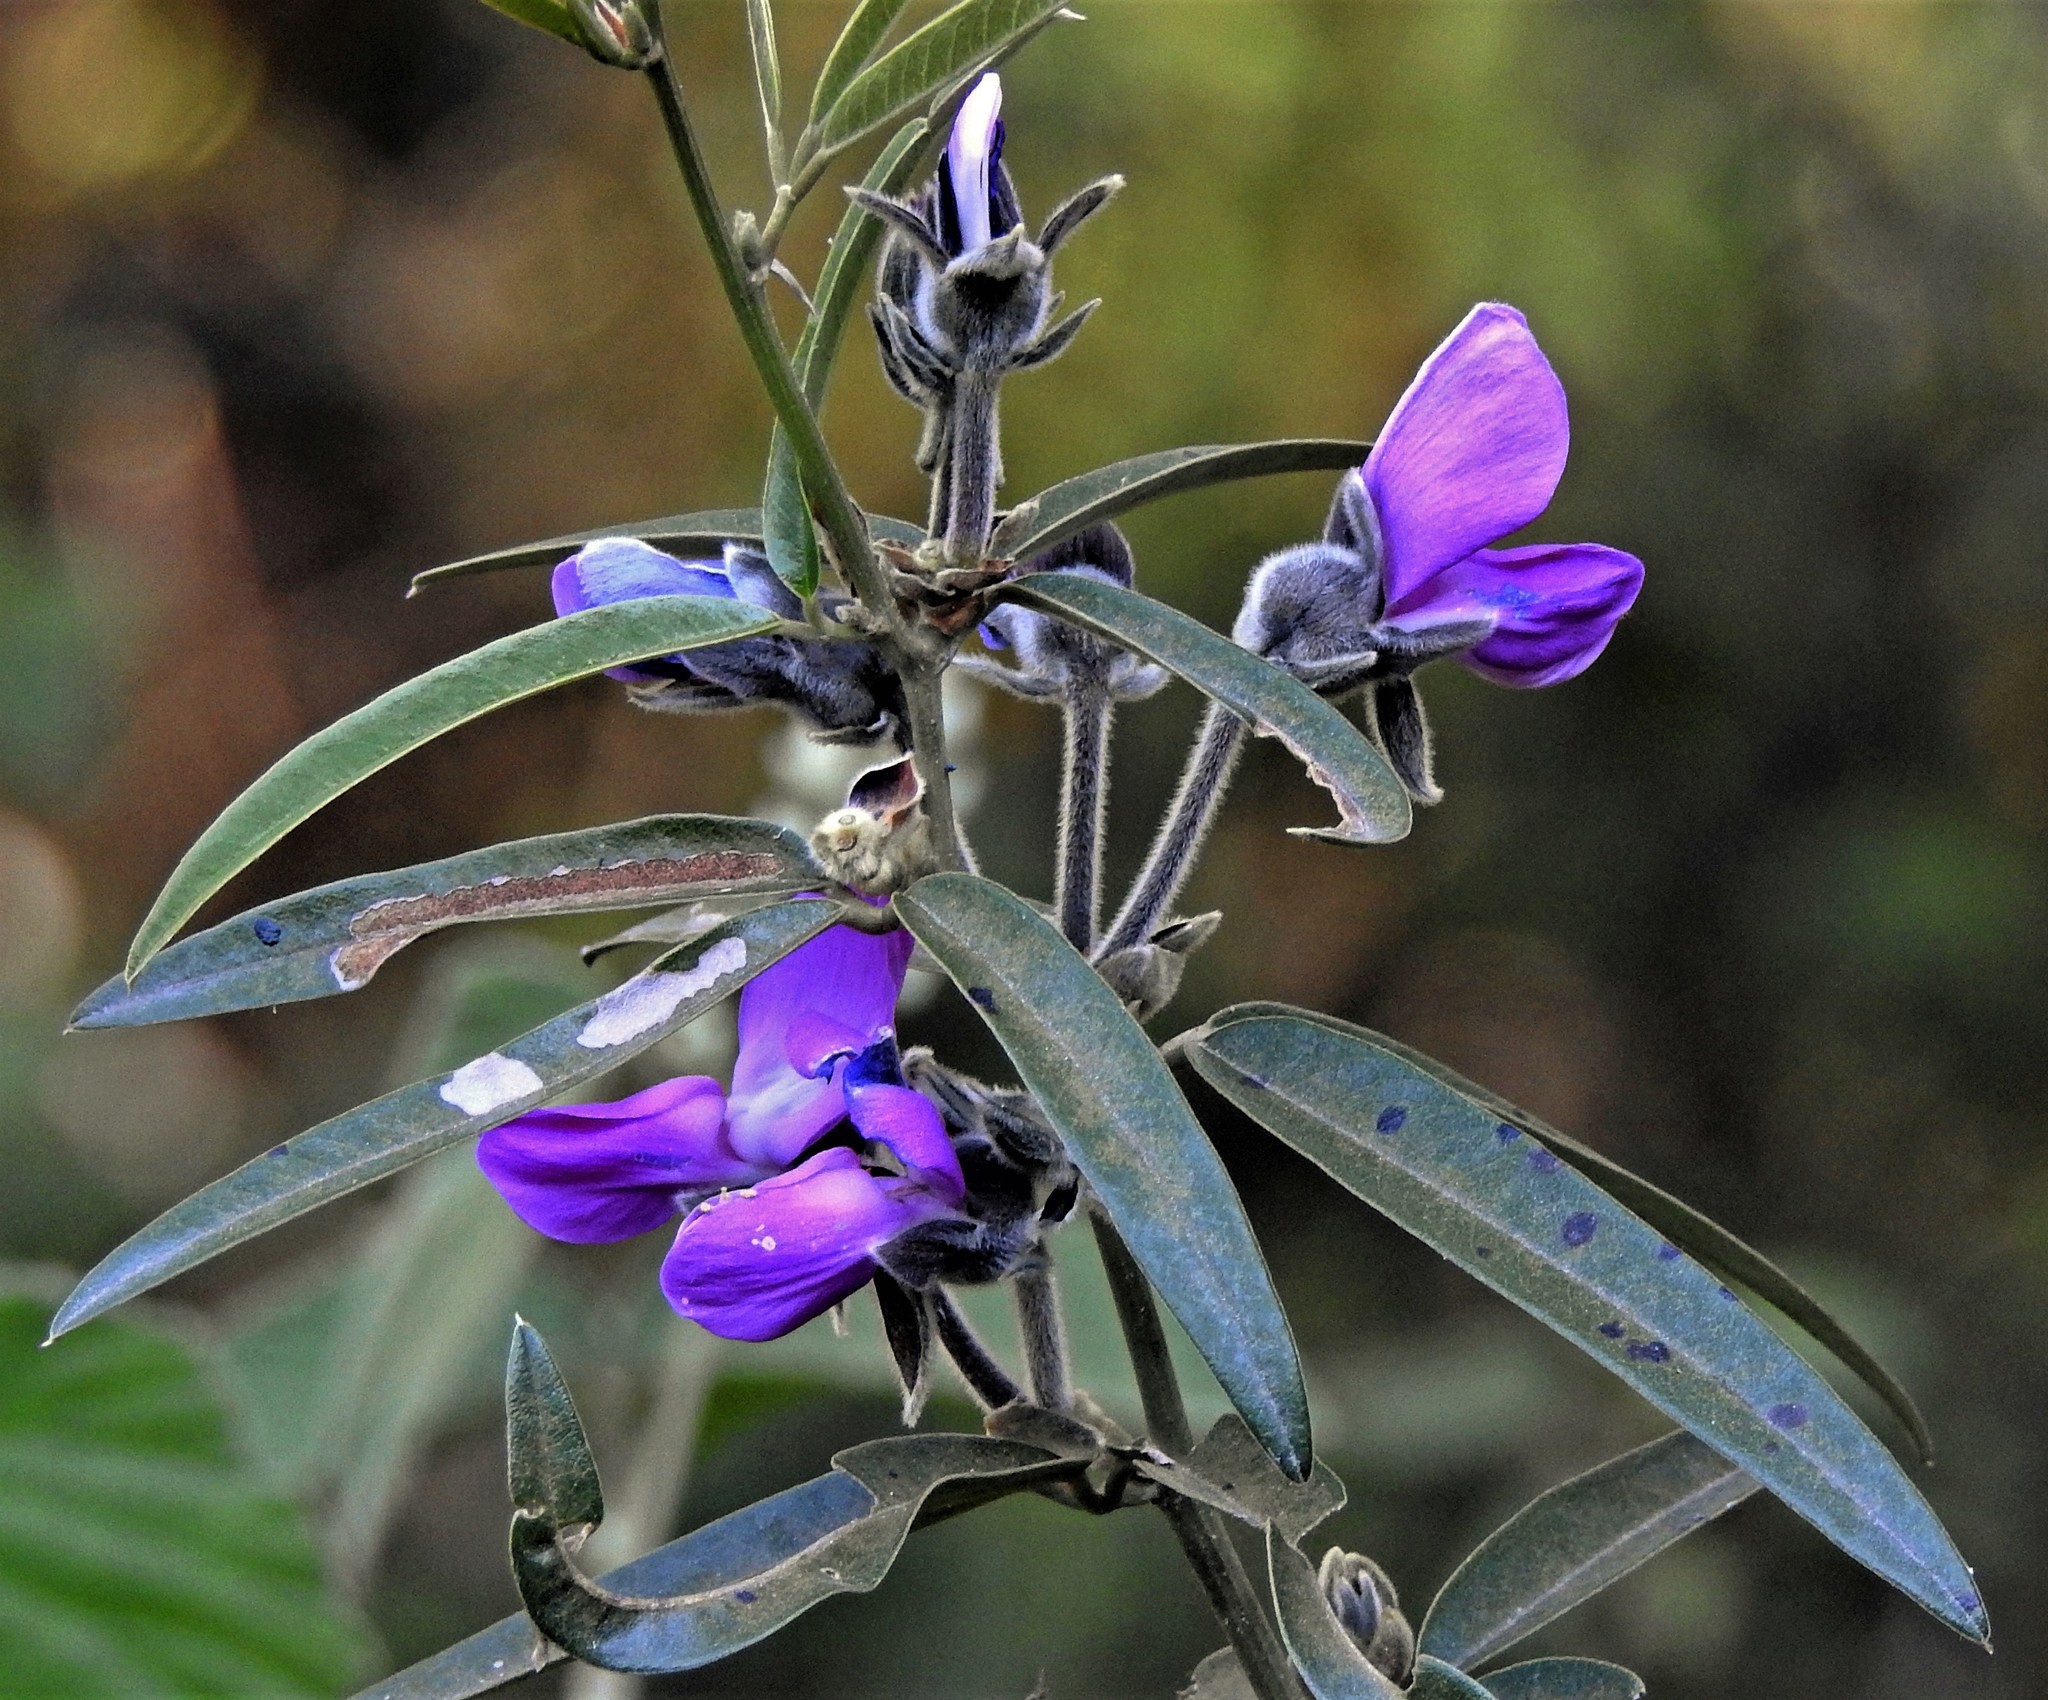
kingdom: Plantae
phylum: Tracheophyta
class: Magnoliopsida
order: Fabales
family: Fabaceae
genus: Nanogalactia
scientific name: Nanogalactia heterophylla
